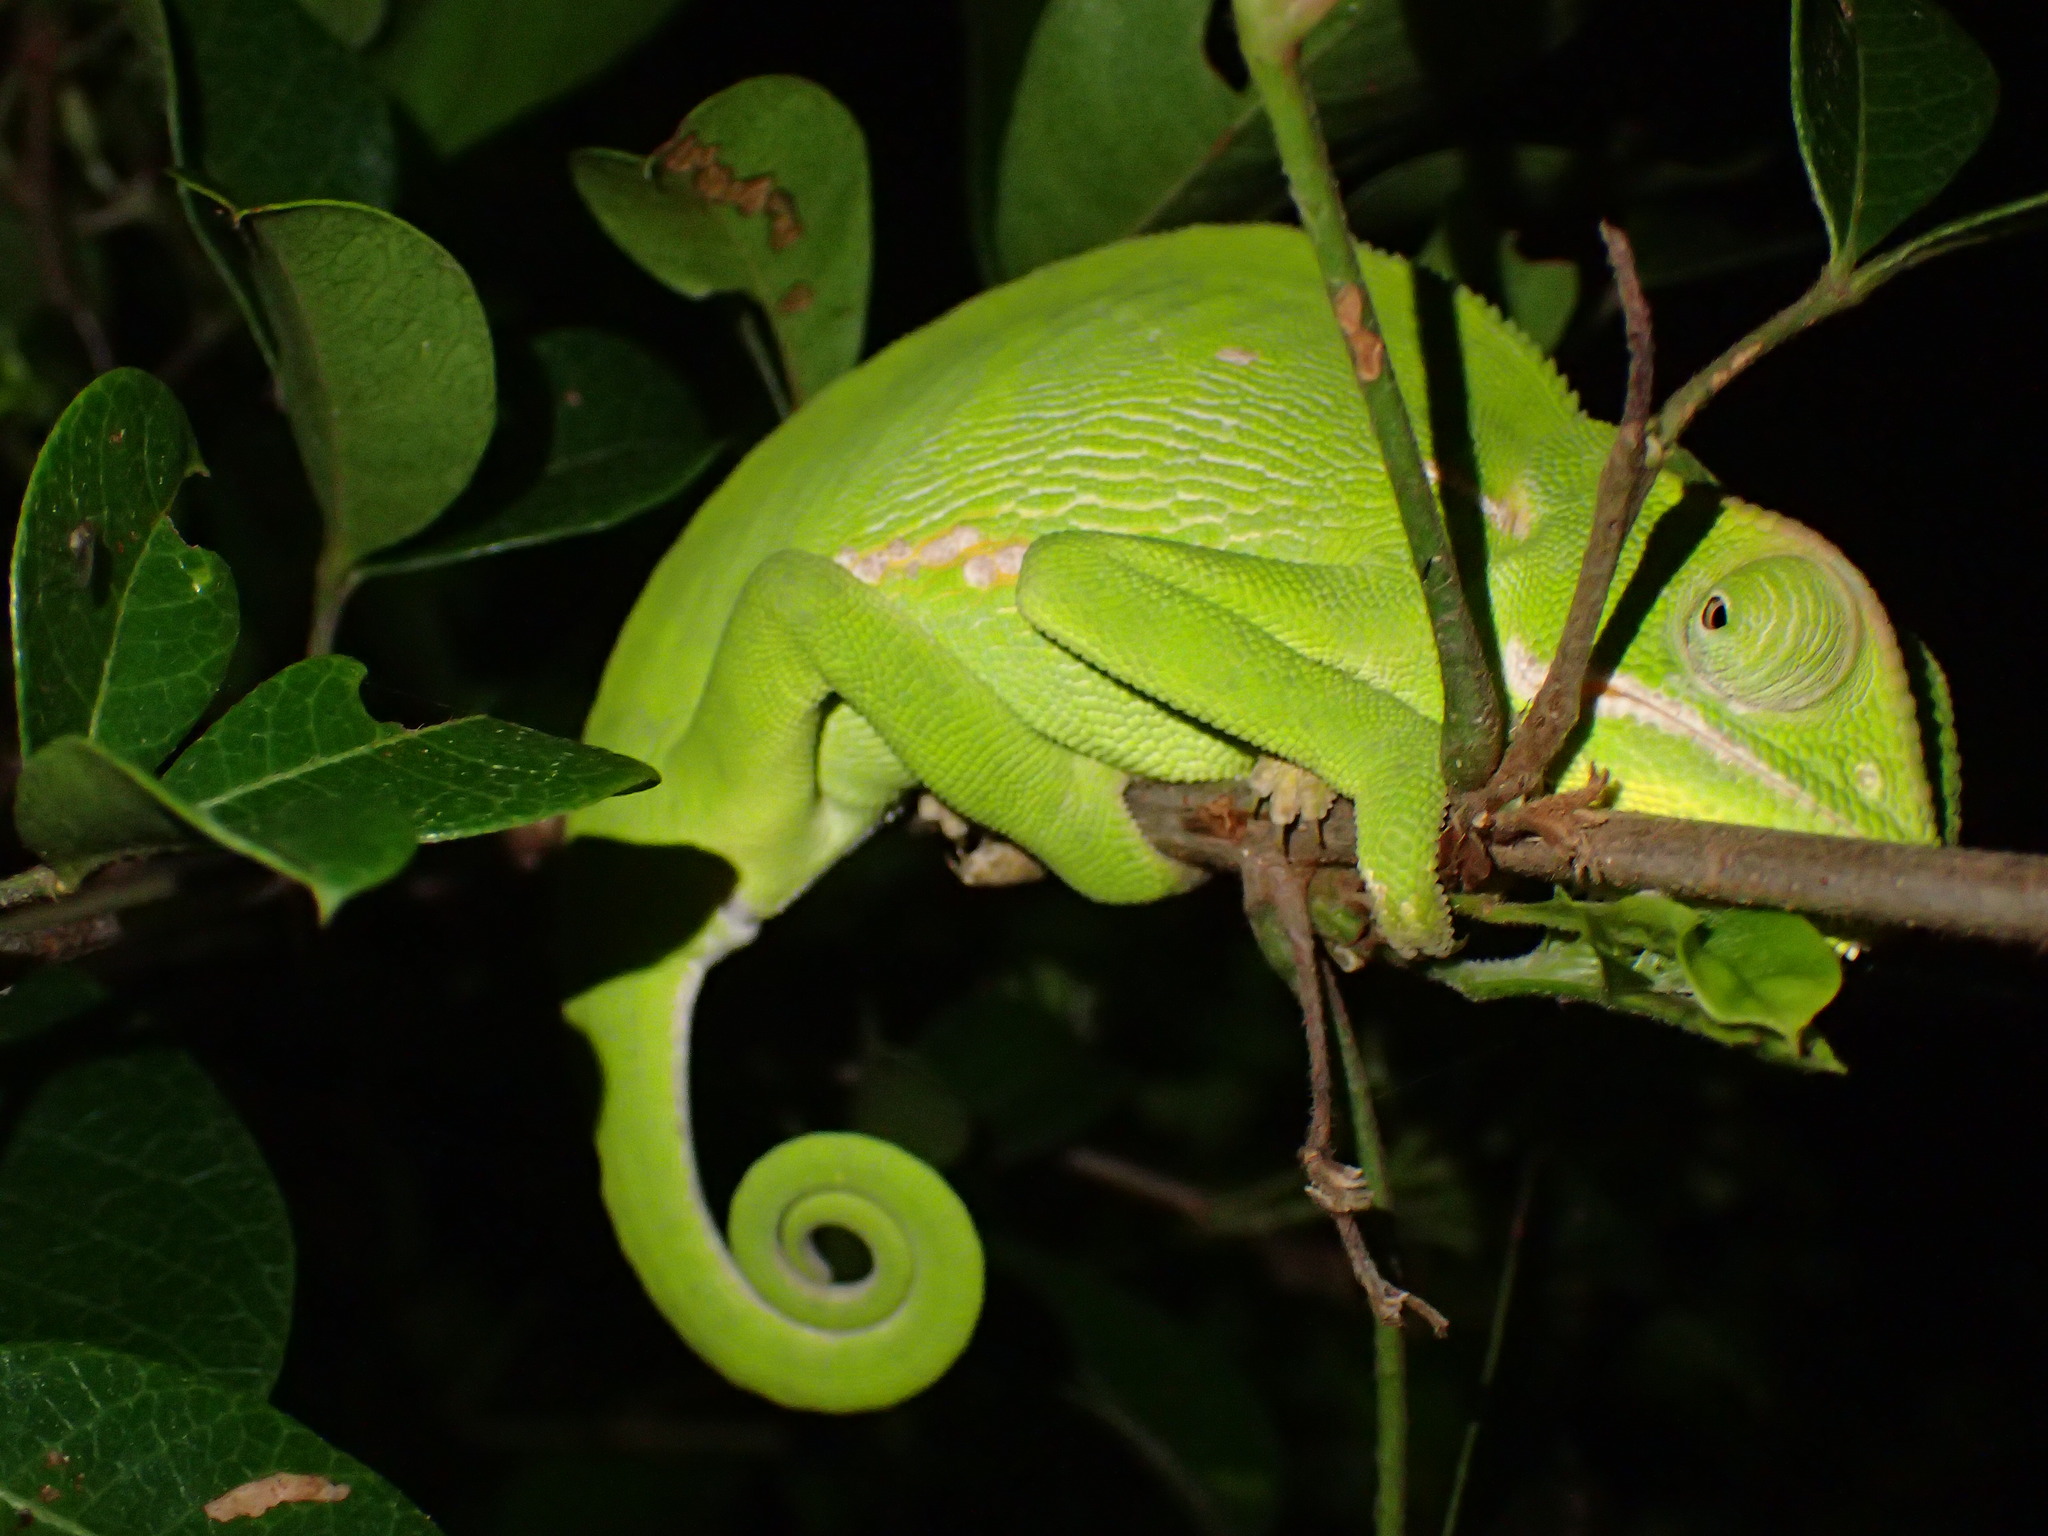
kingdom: Animalia
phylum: Chordata
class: Squamata
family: Chamaeleonidae
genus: Chamaeleo
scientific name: Chamaeleo dilepis
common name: Flapneck chameleon
